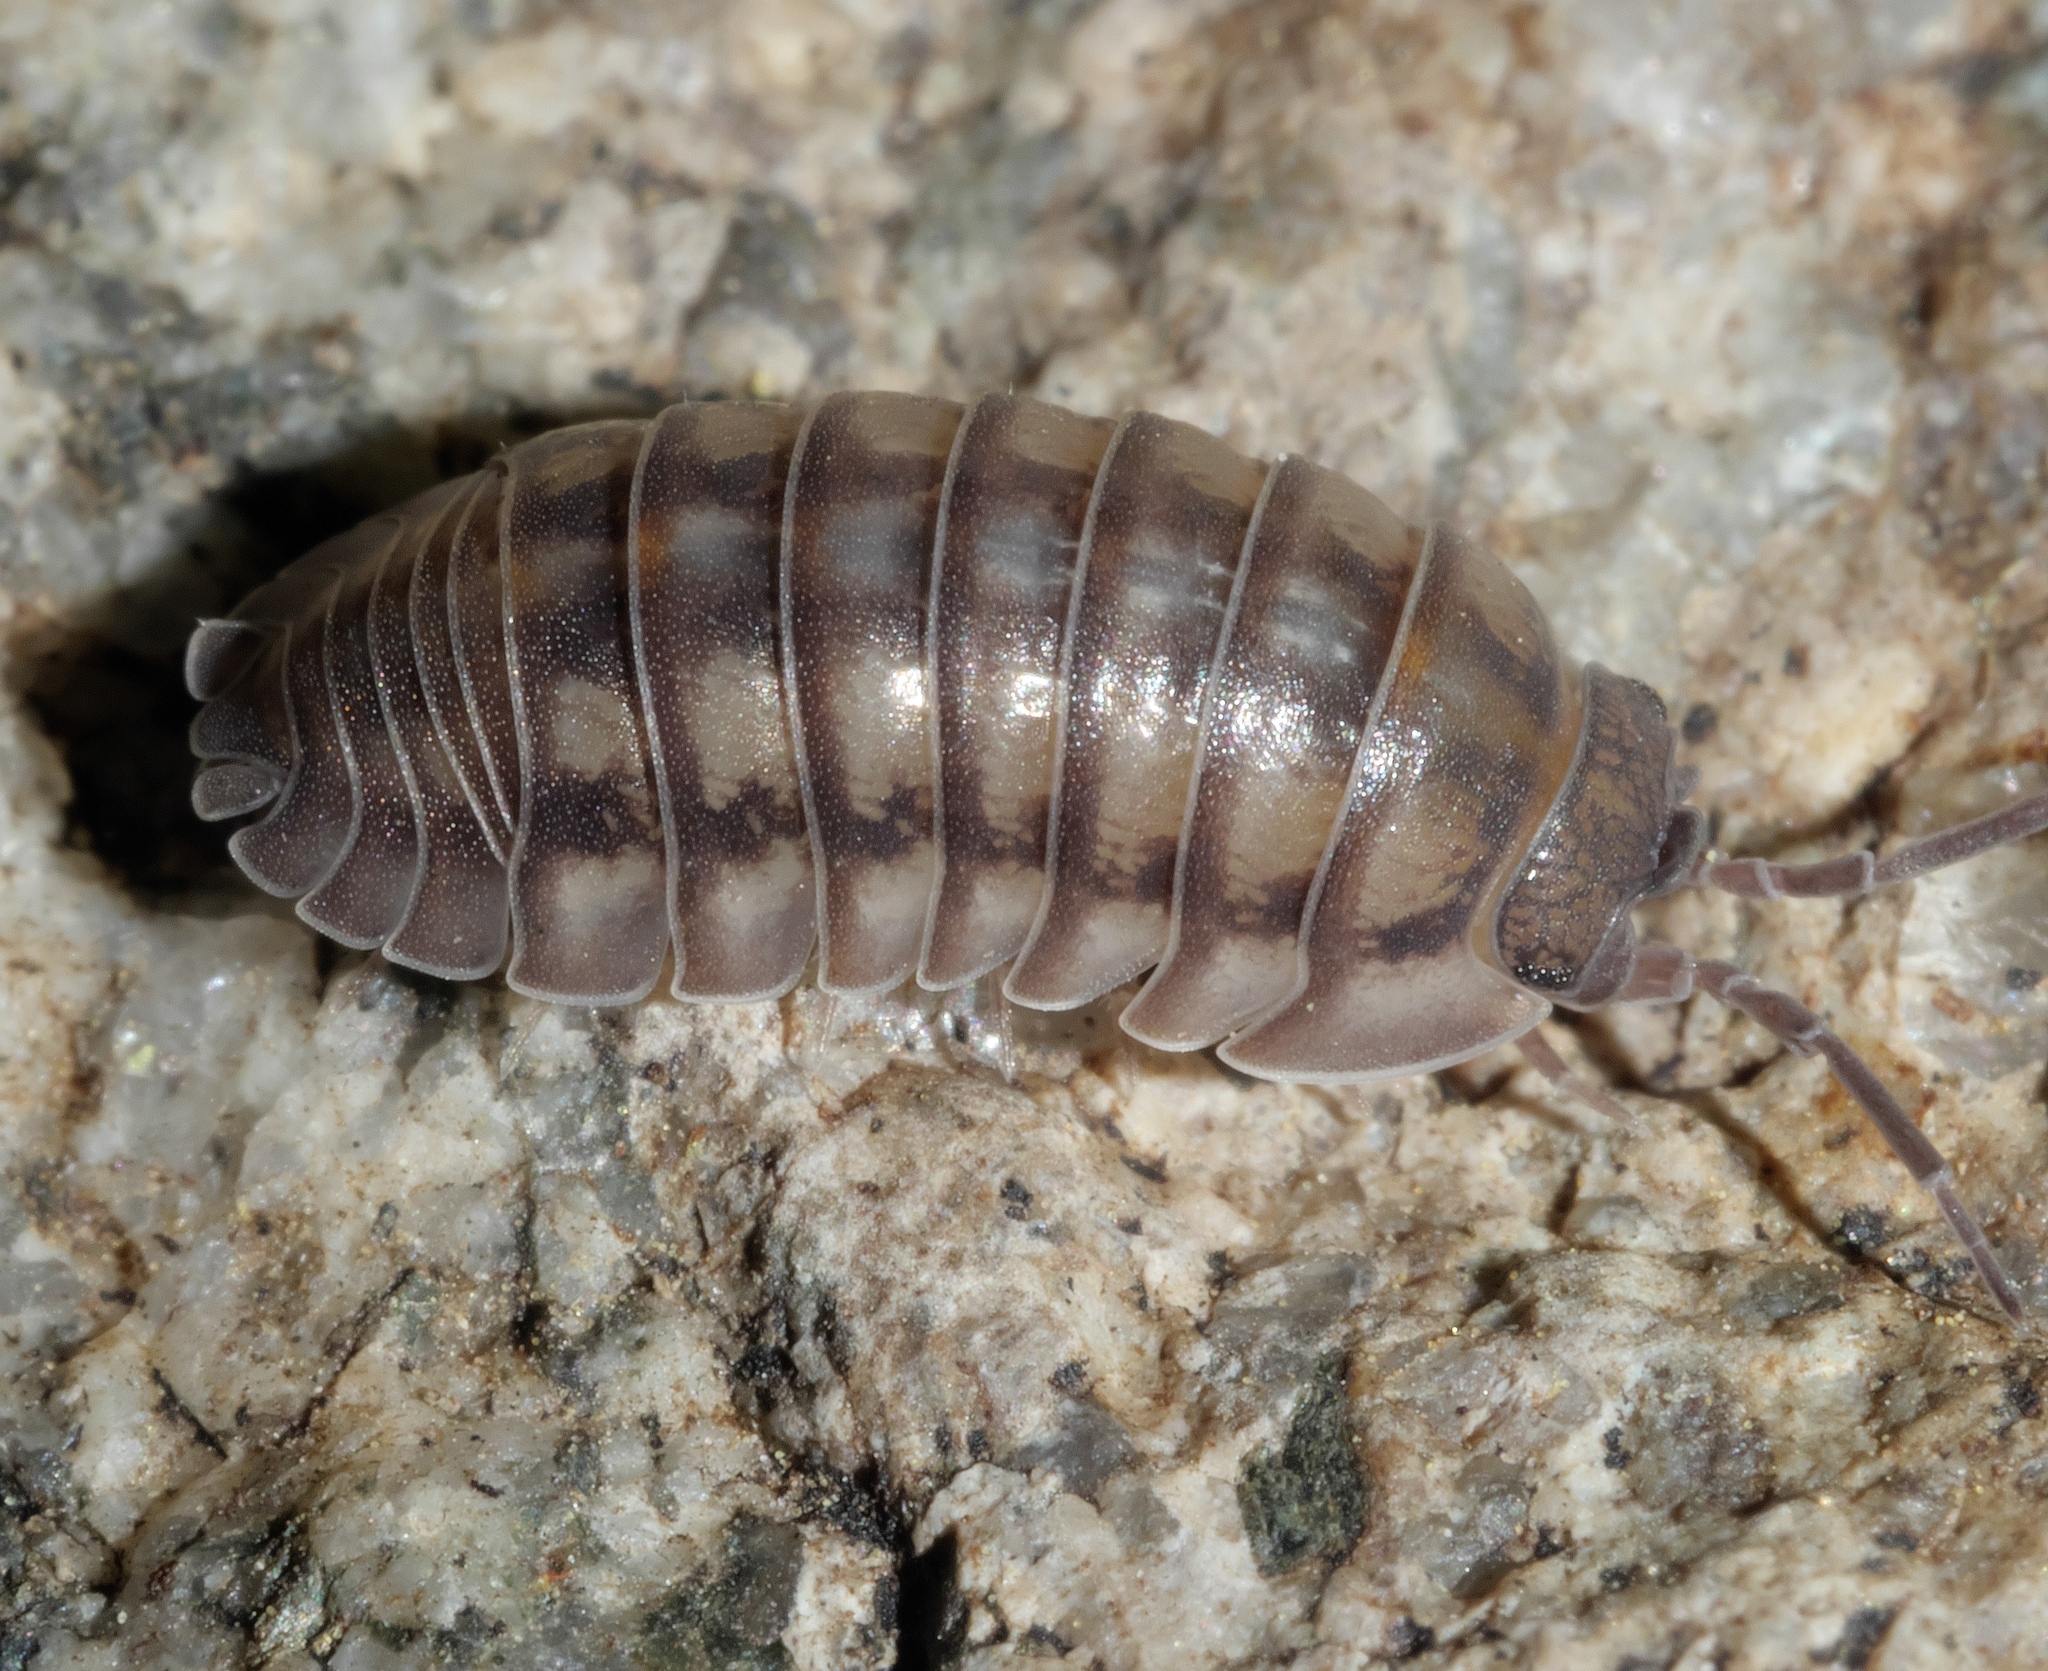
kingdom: Animalia
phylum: Arthropoda
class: Malacostraca
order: Isopoda
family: Armadillidiidae
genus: Armadillidium
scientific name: Armadillidium nasatum
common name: Isopod
